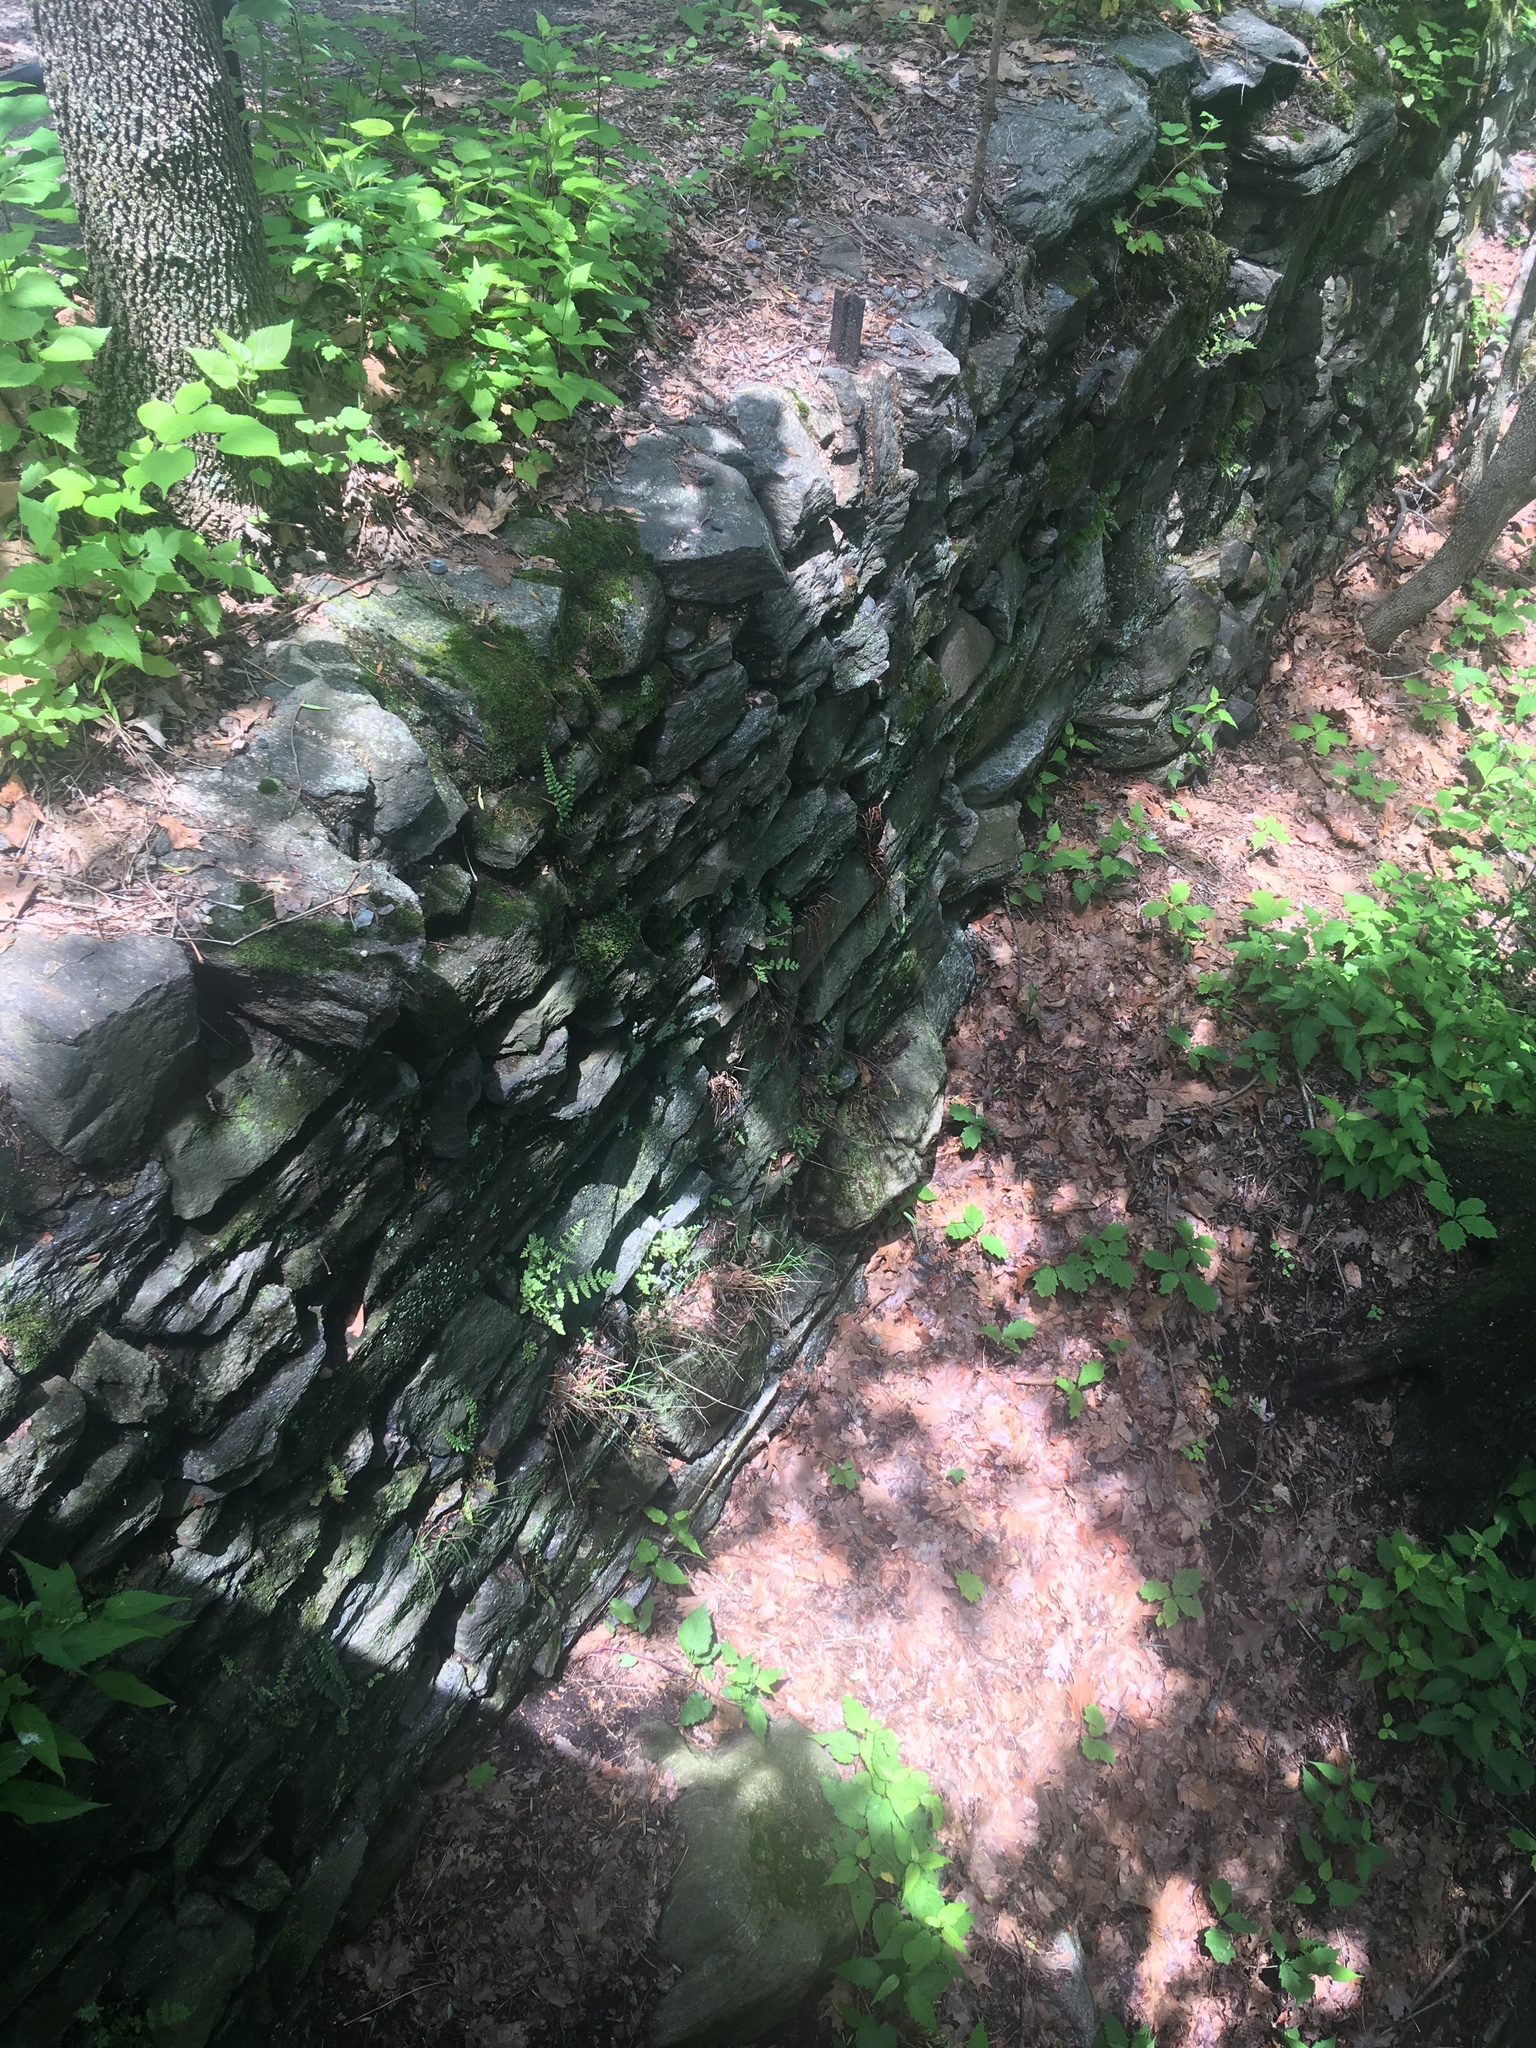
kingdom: Plantae
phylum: Tracheophyta
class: Polypodiopsida
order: Polypodiales
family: Pteridaceae
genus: Pellaea
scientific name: Pellaea atropurpurea
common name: Hairy cliffbrake
